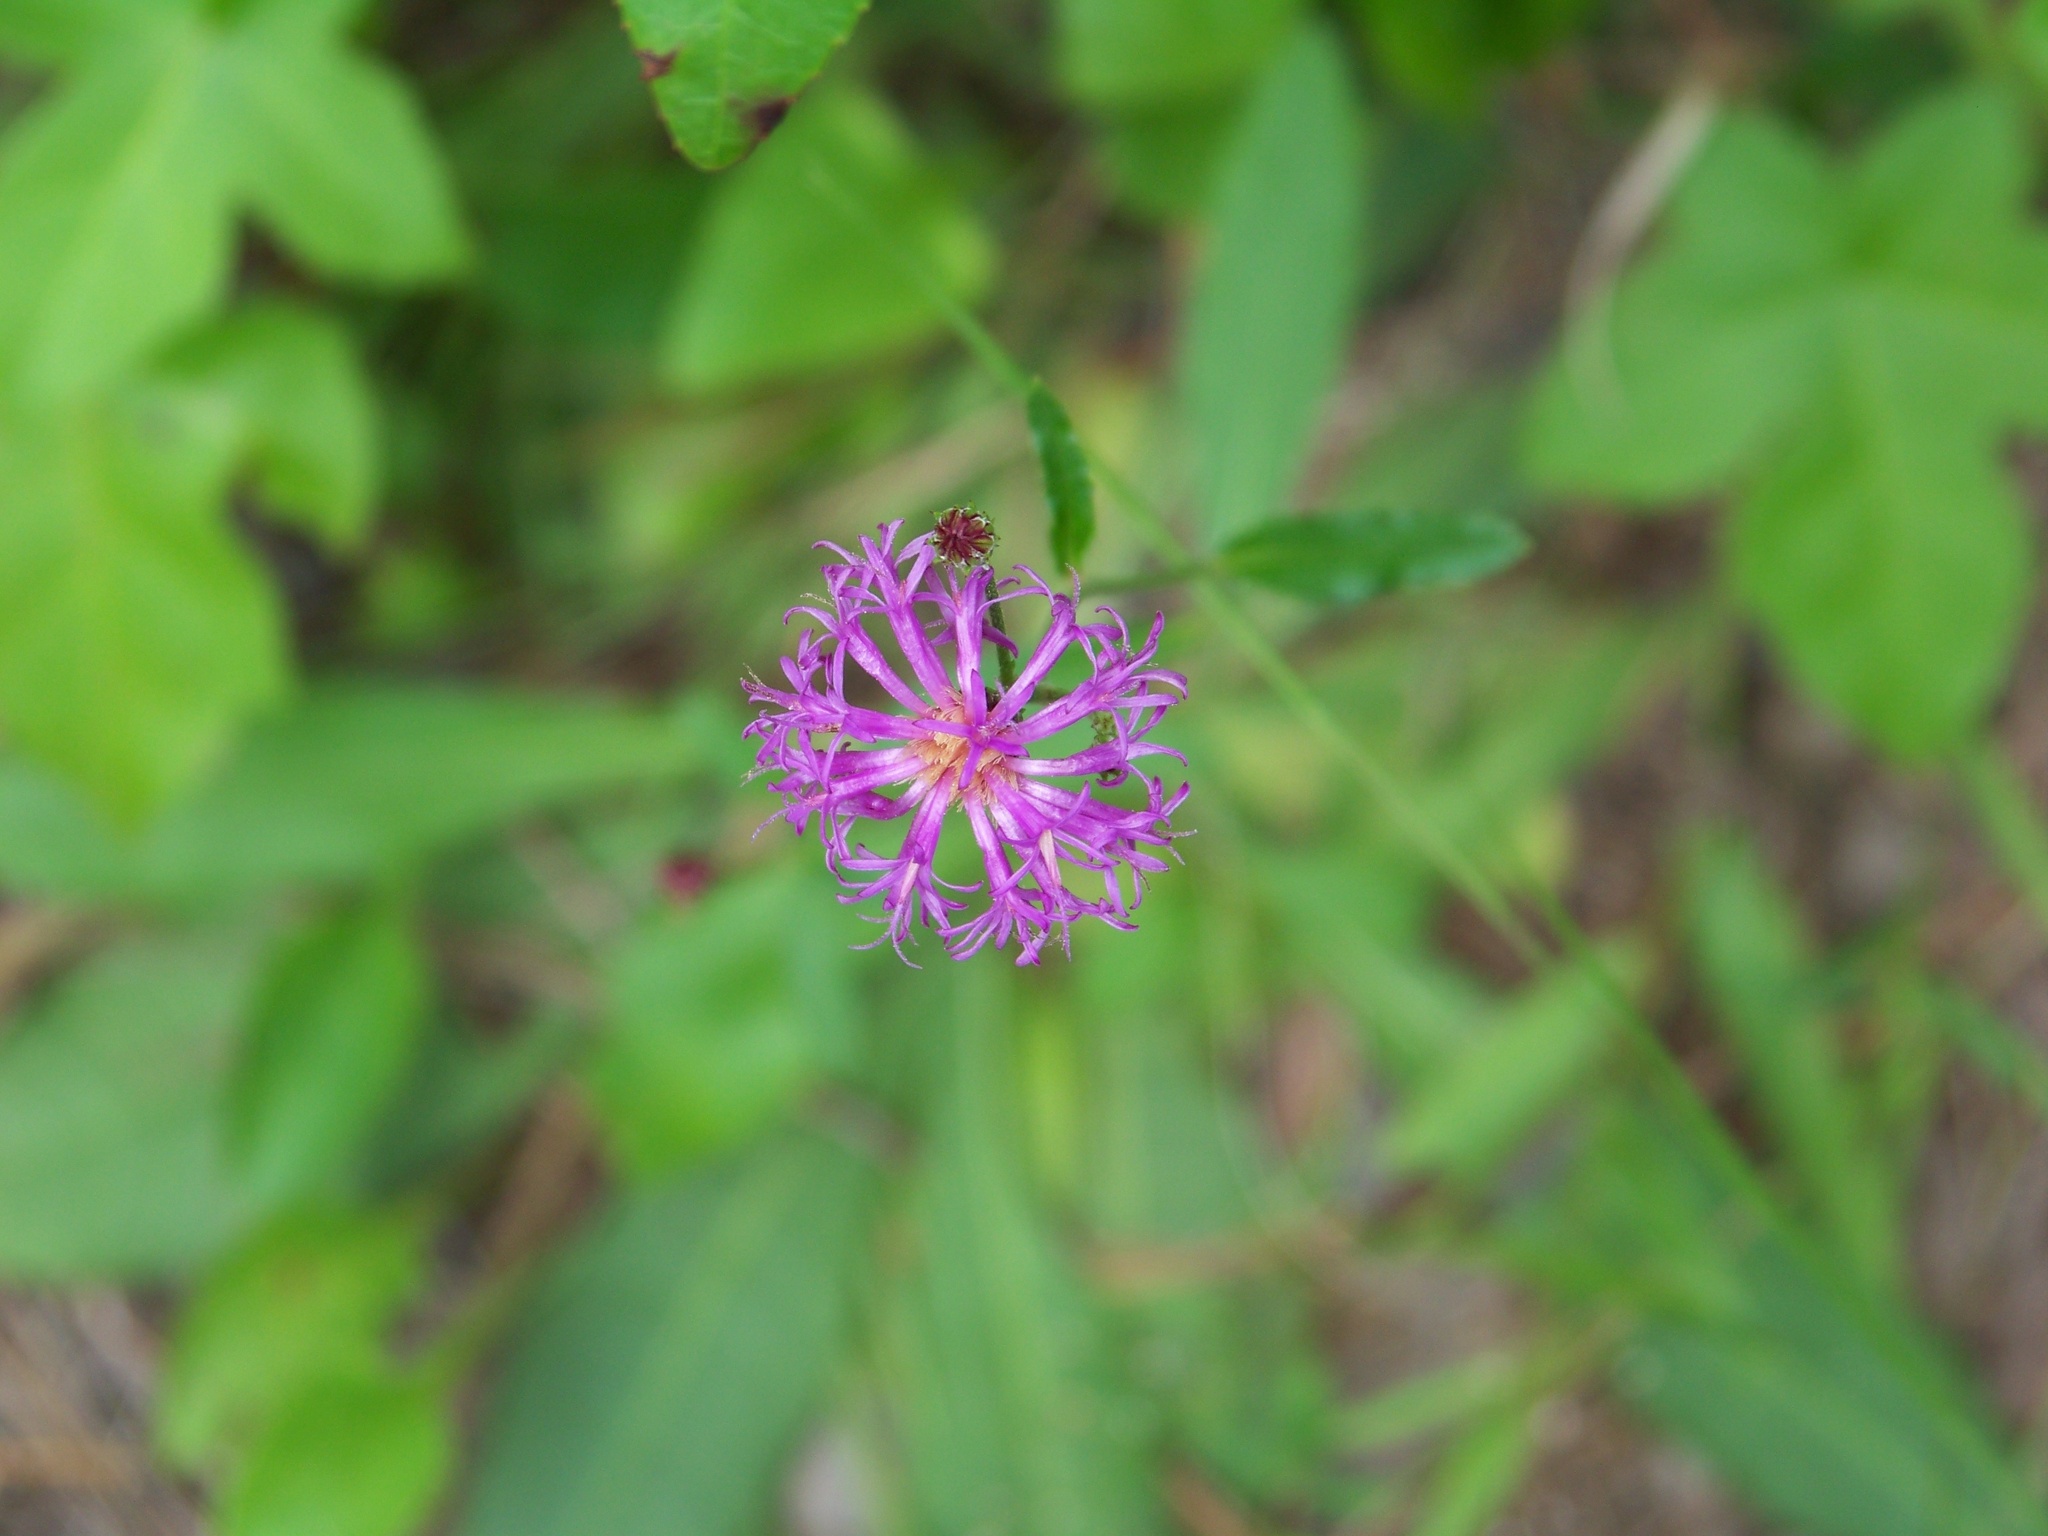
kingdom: Plantae
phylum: Tracheophyta
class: Magnoliopsida
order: Asterales
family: Asteraceae
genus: Vernonia
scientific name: Vernonia acaulis
